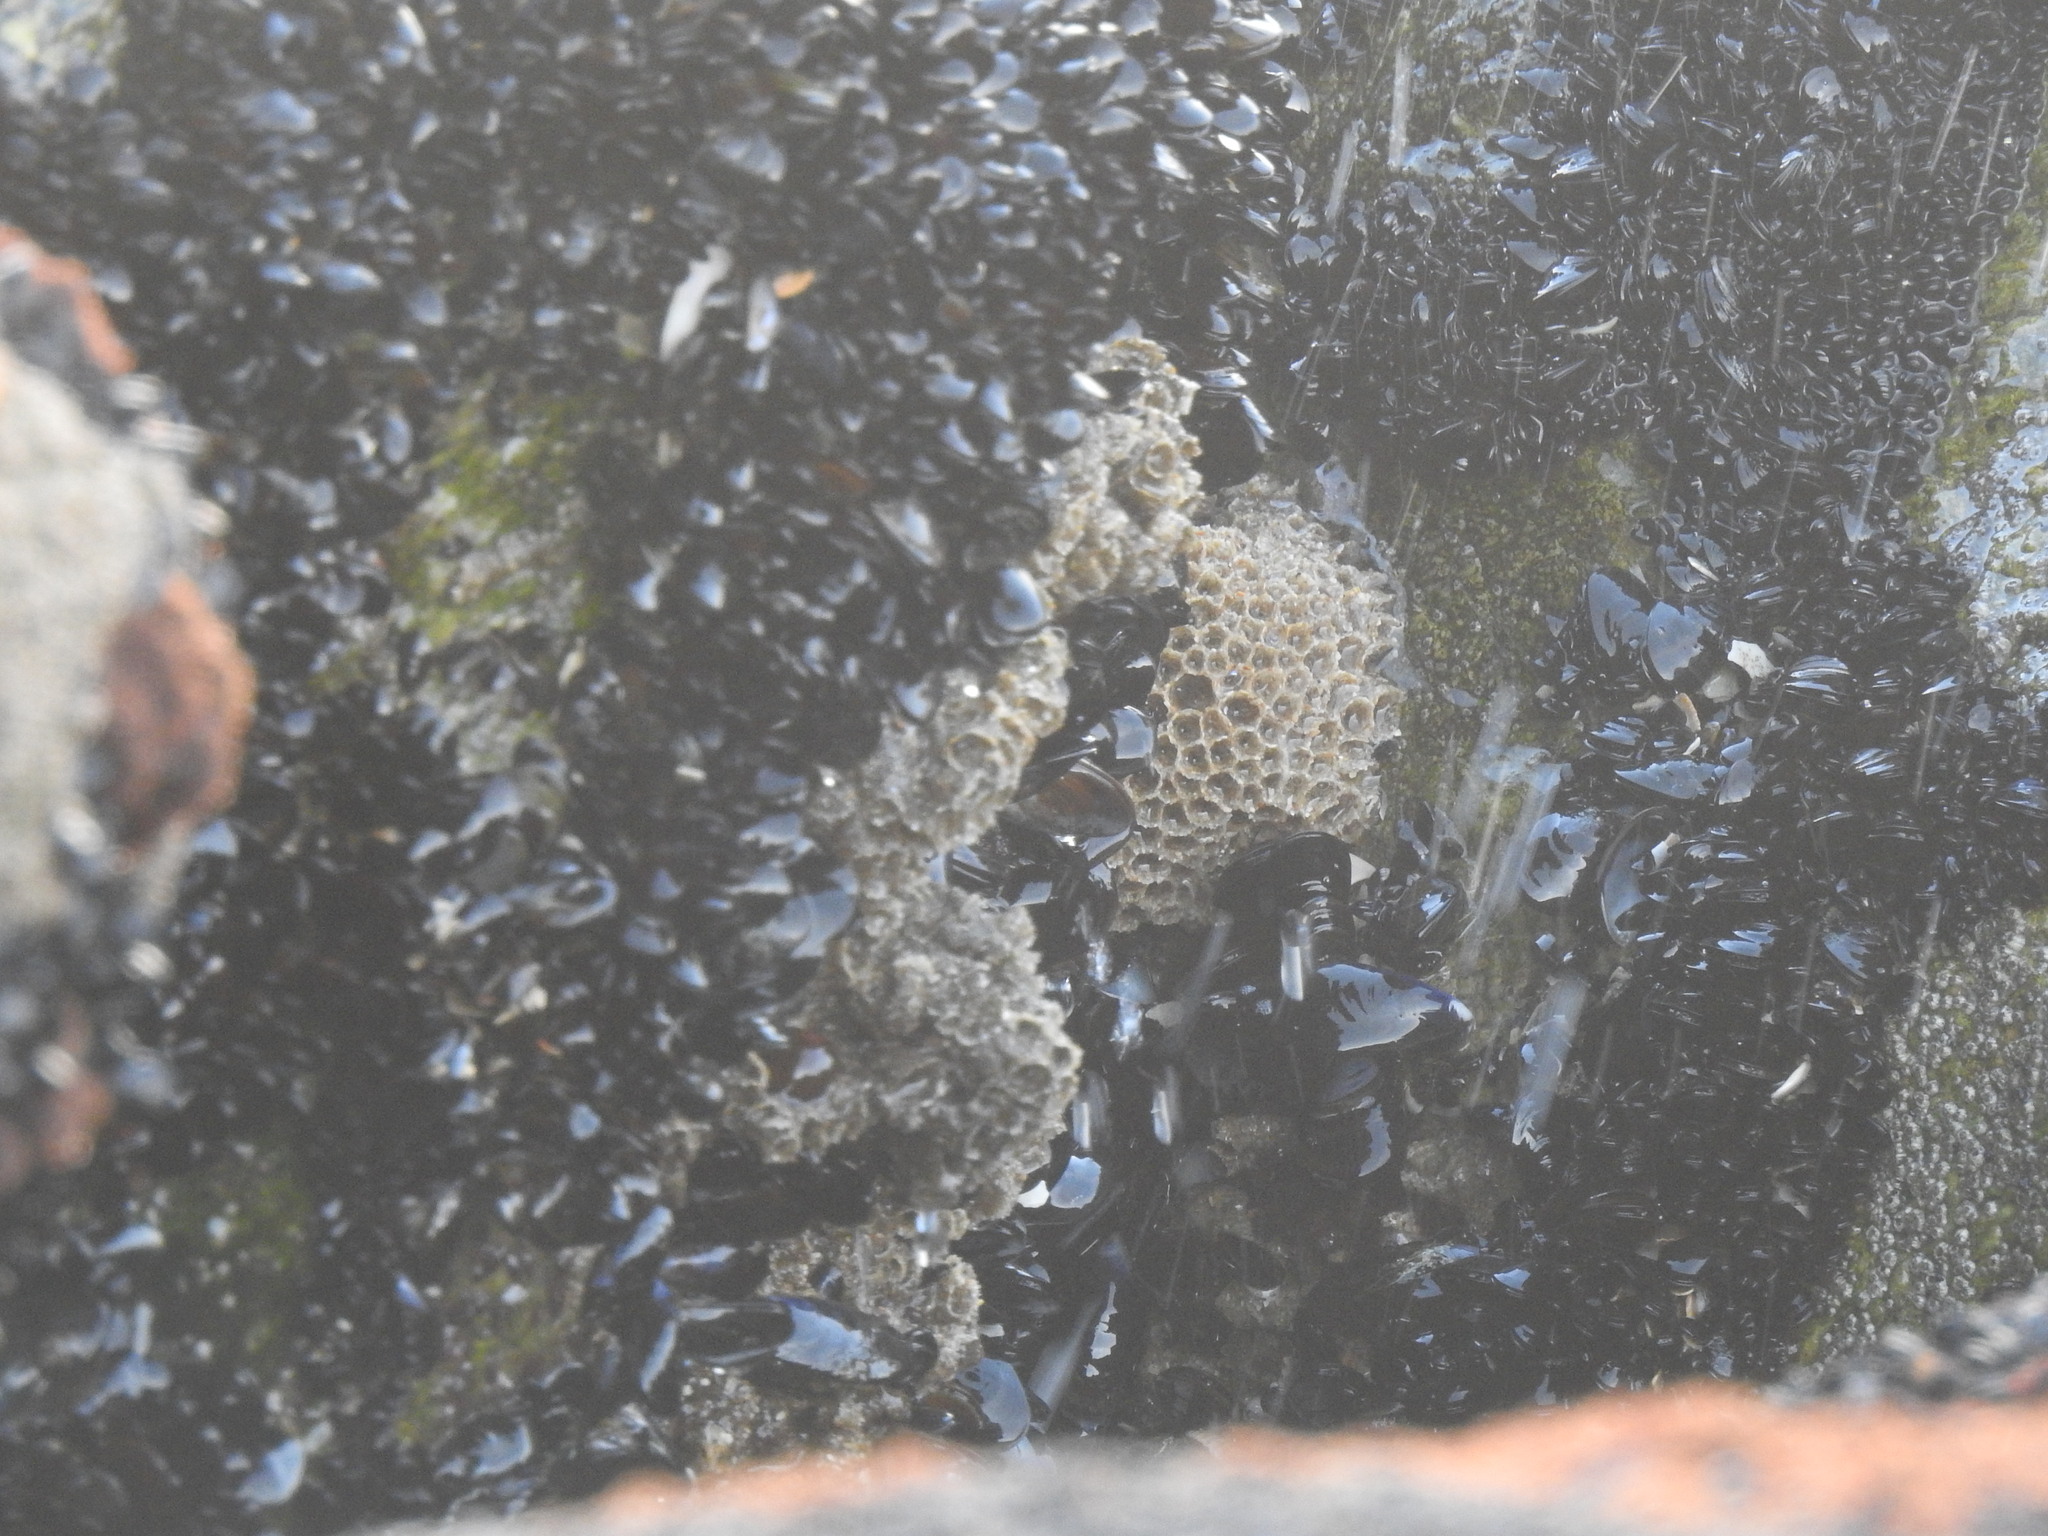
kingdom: Animalia
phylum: Annelida
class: Polychaeta
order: Sabellida
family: Sabellariidae
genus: Sabellaria
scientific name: Sabellaria alveolata
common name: Honeycomb worm
